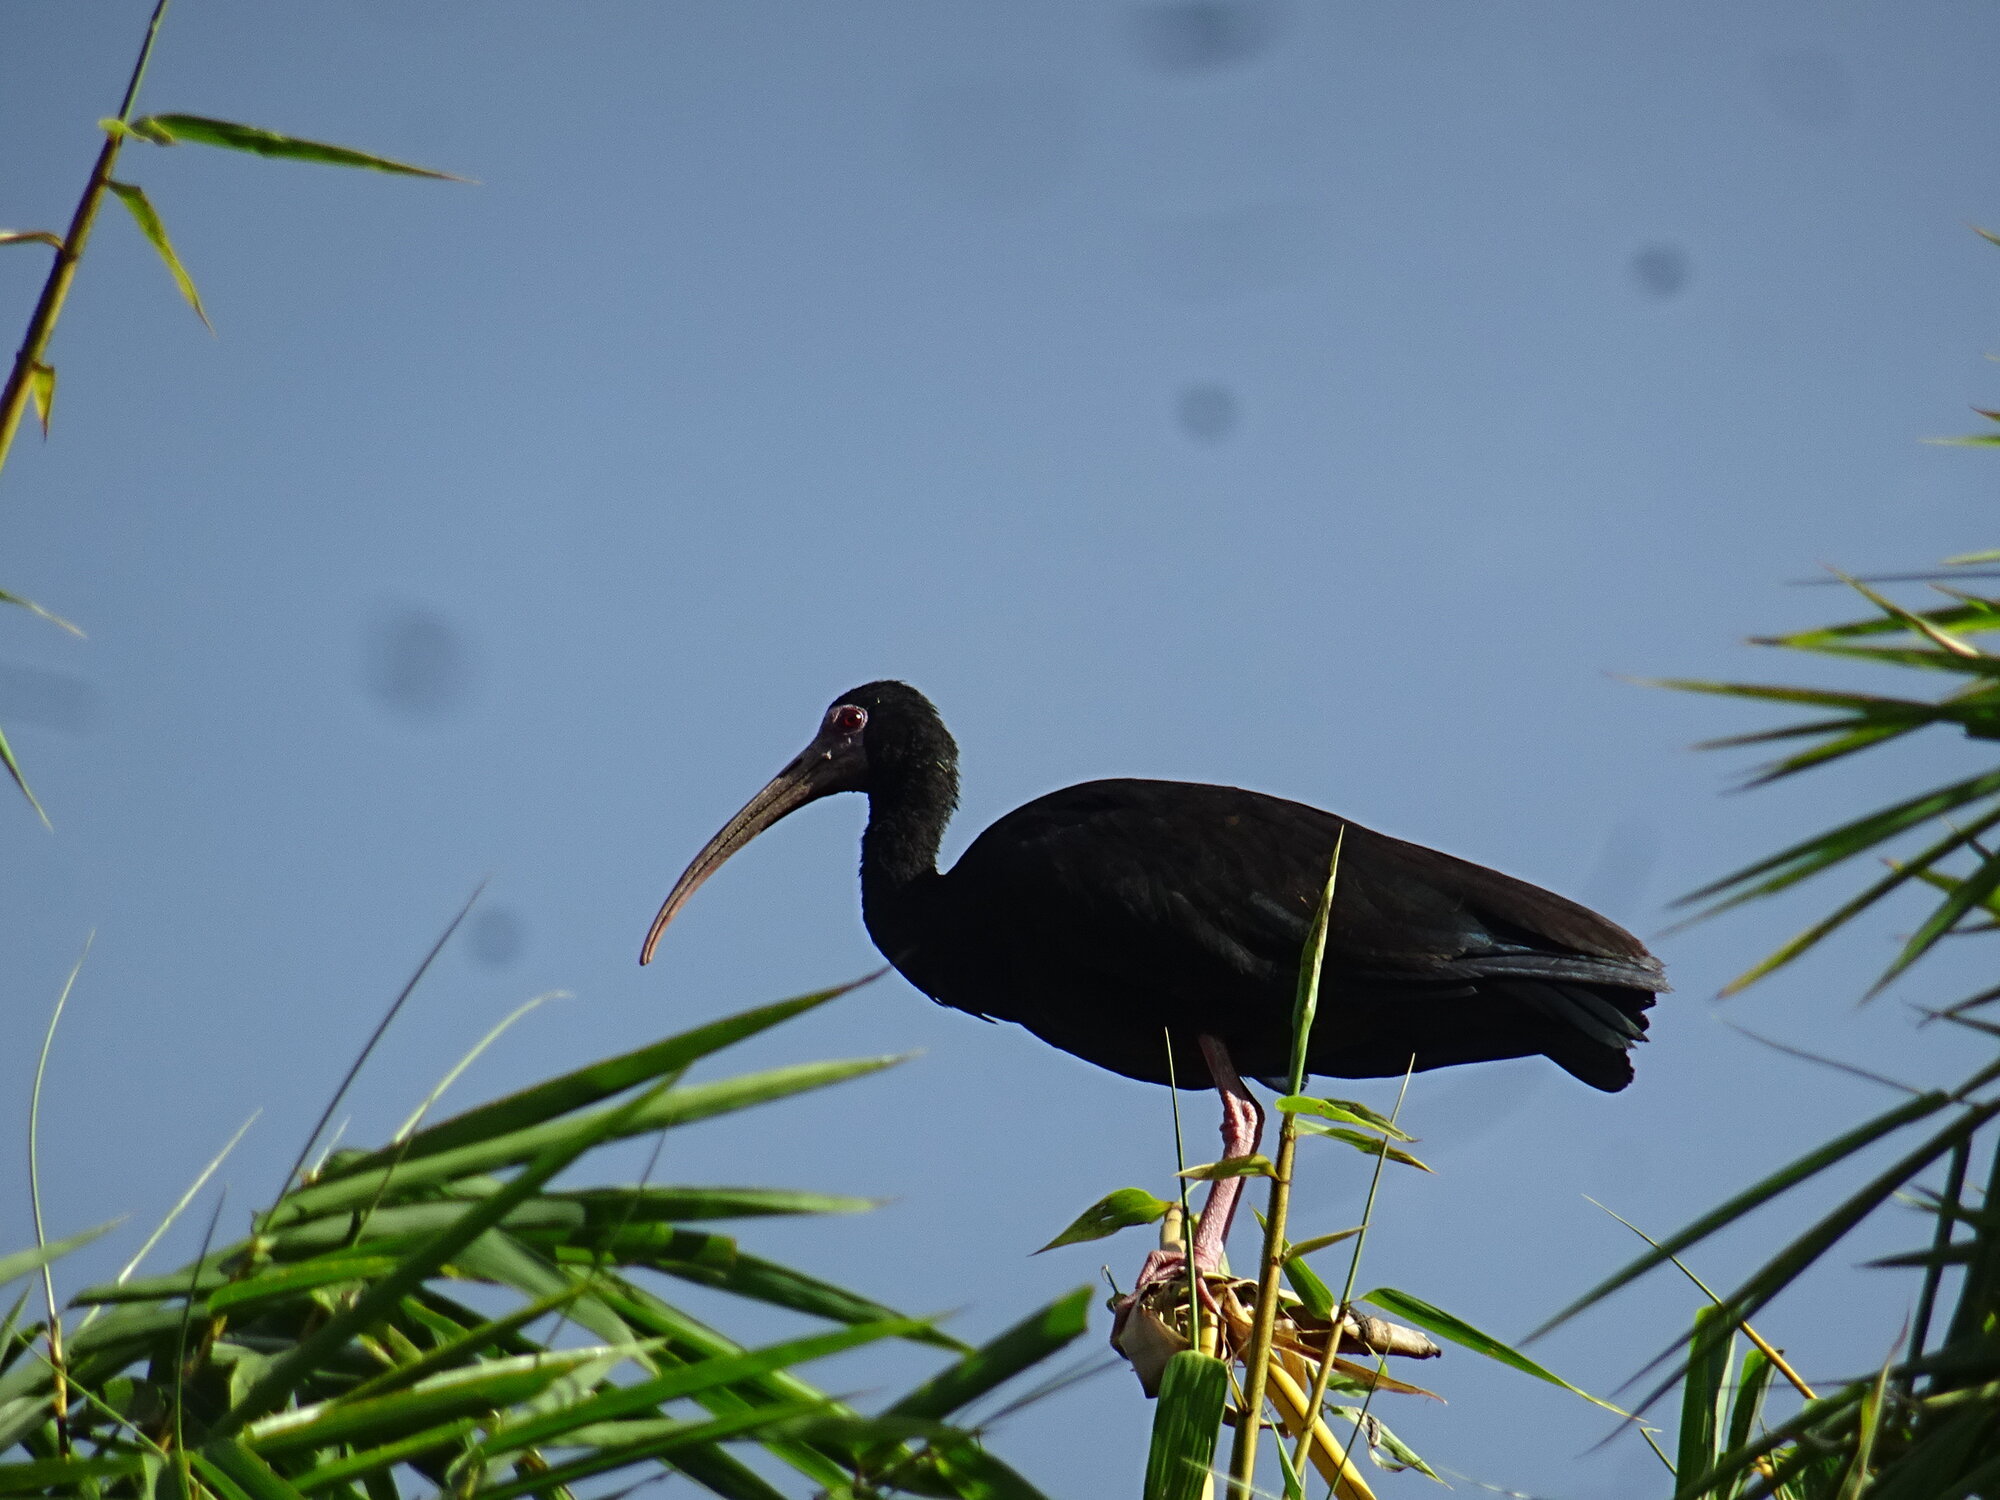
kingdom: Animalia
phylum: Chordata
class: Aves
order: Pelecaniformes
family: Threskiornithidae
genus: Phimosus
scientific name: Phimosus infuscatus
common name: Bare-faced ibis
